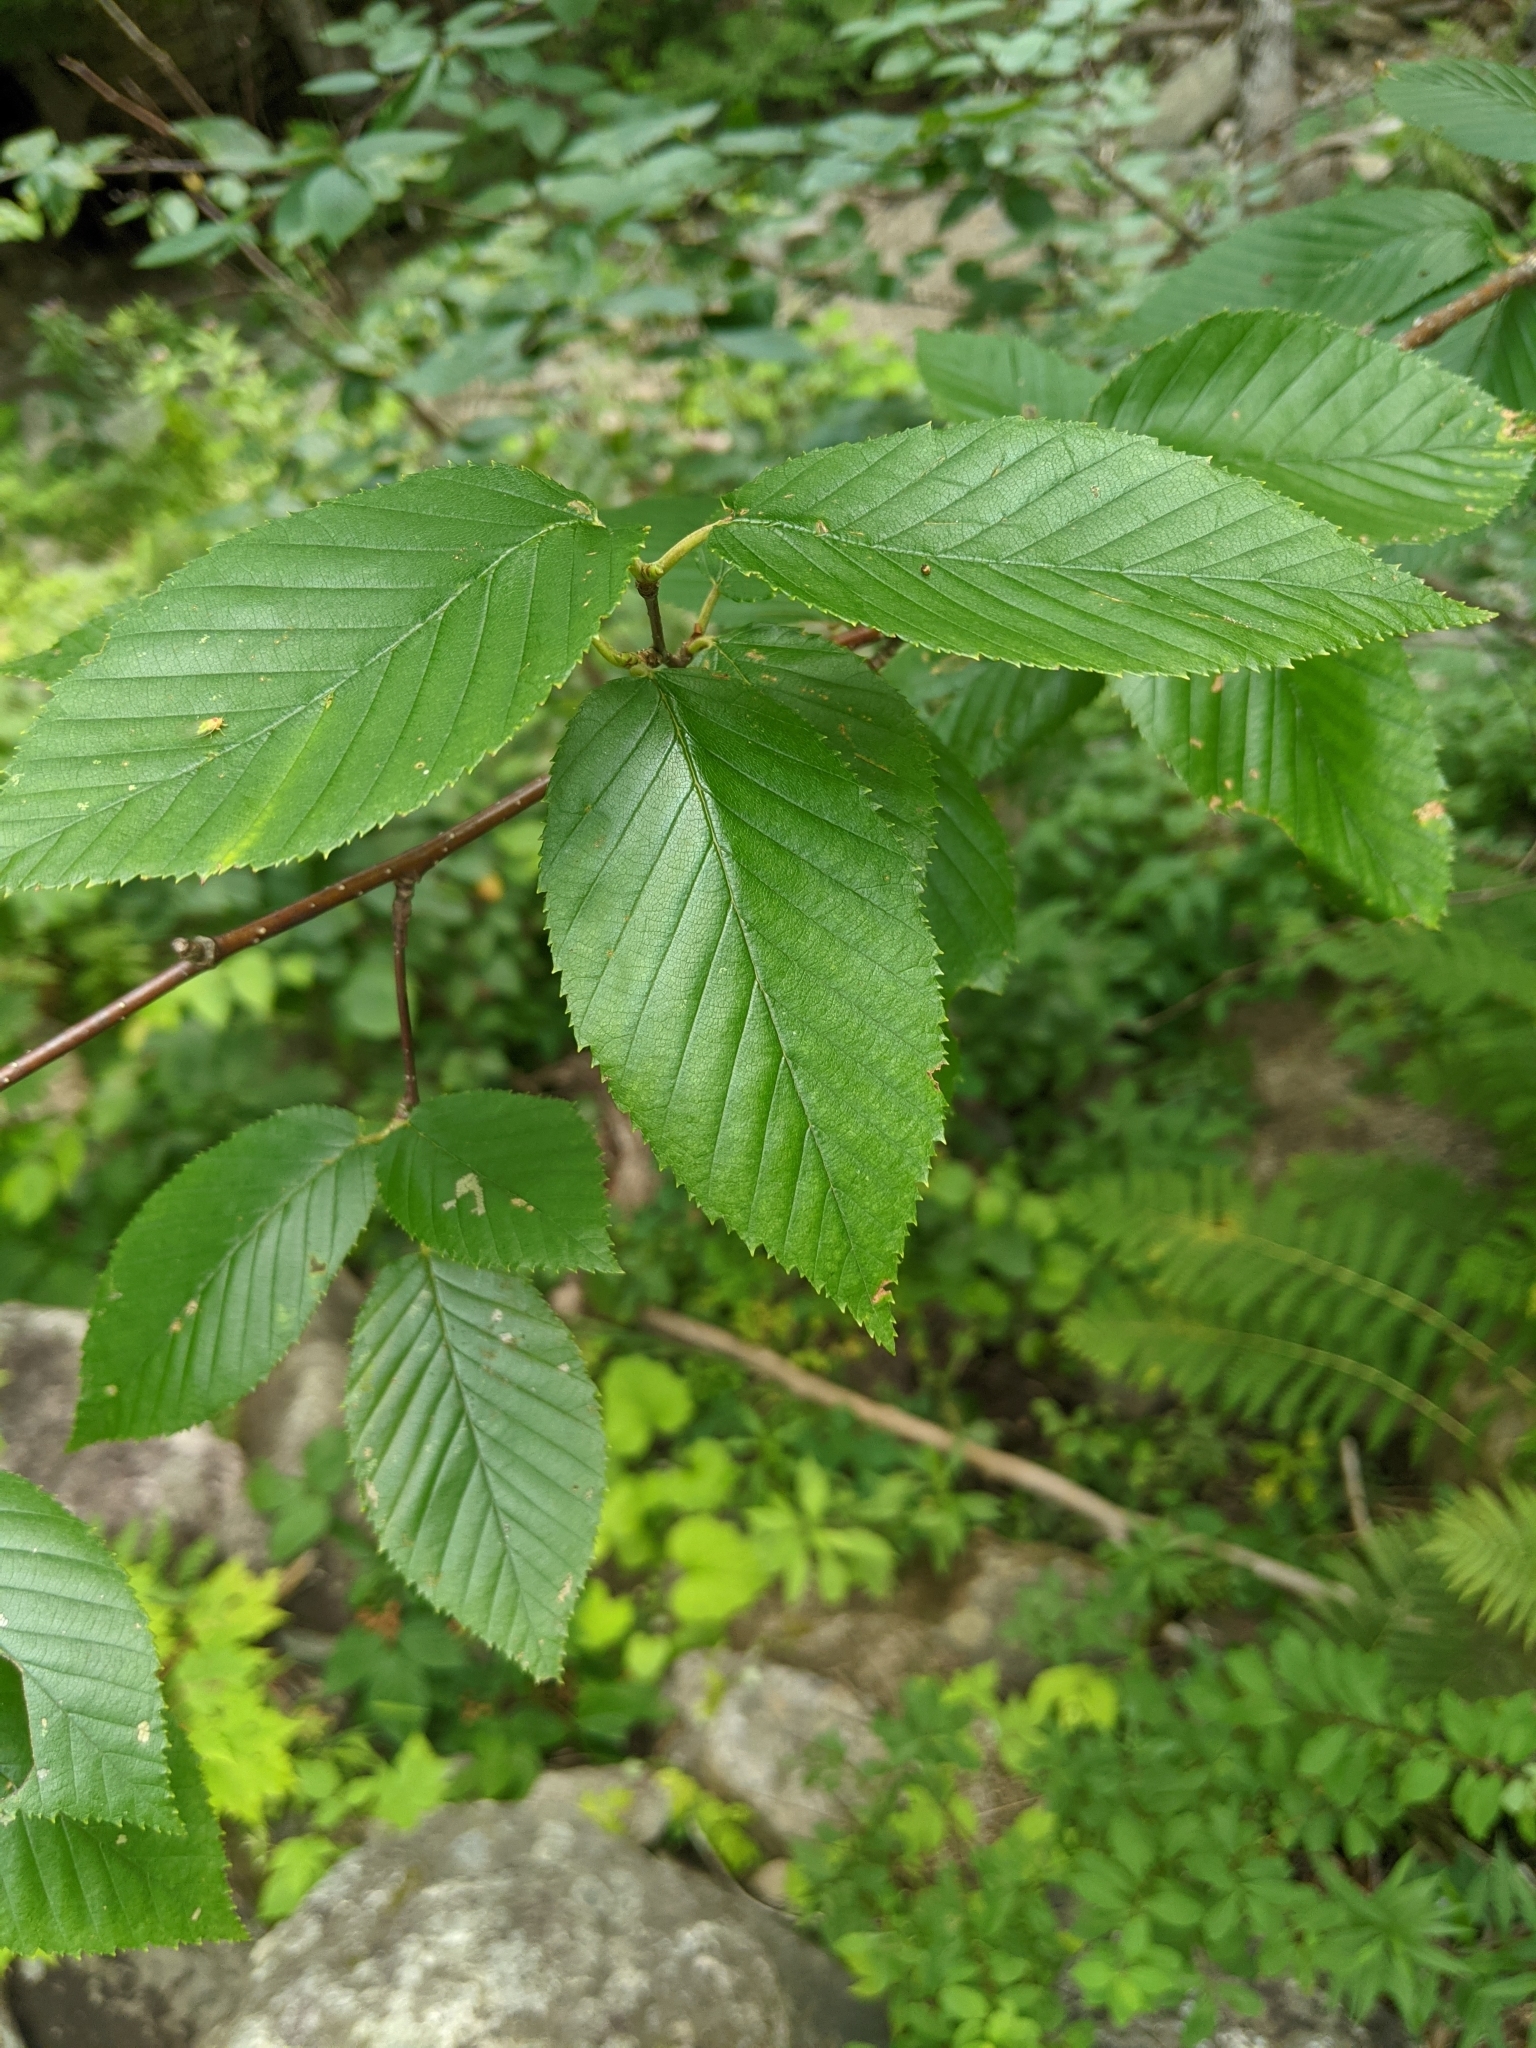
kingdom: Plantae
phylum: Tracheophyta
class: Magnoliopsida
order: Fagales
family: Betulaceae
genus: Betula
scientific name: Betula alleghaniensis
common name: Yellow birch
